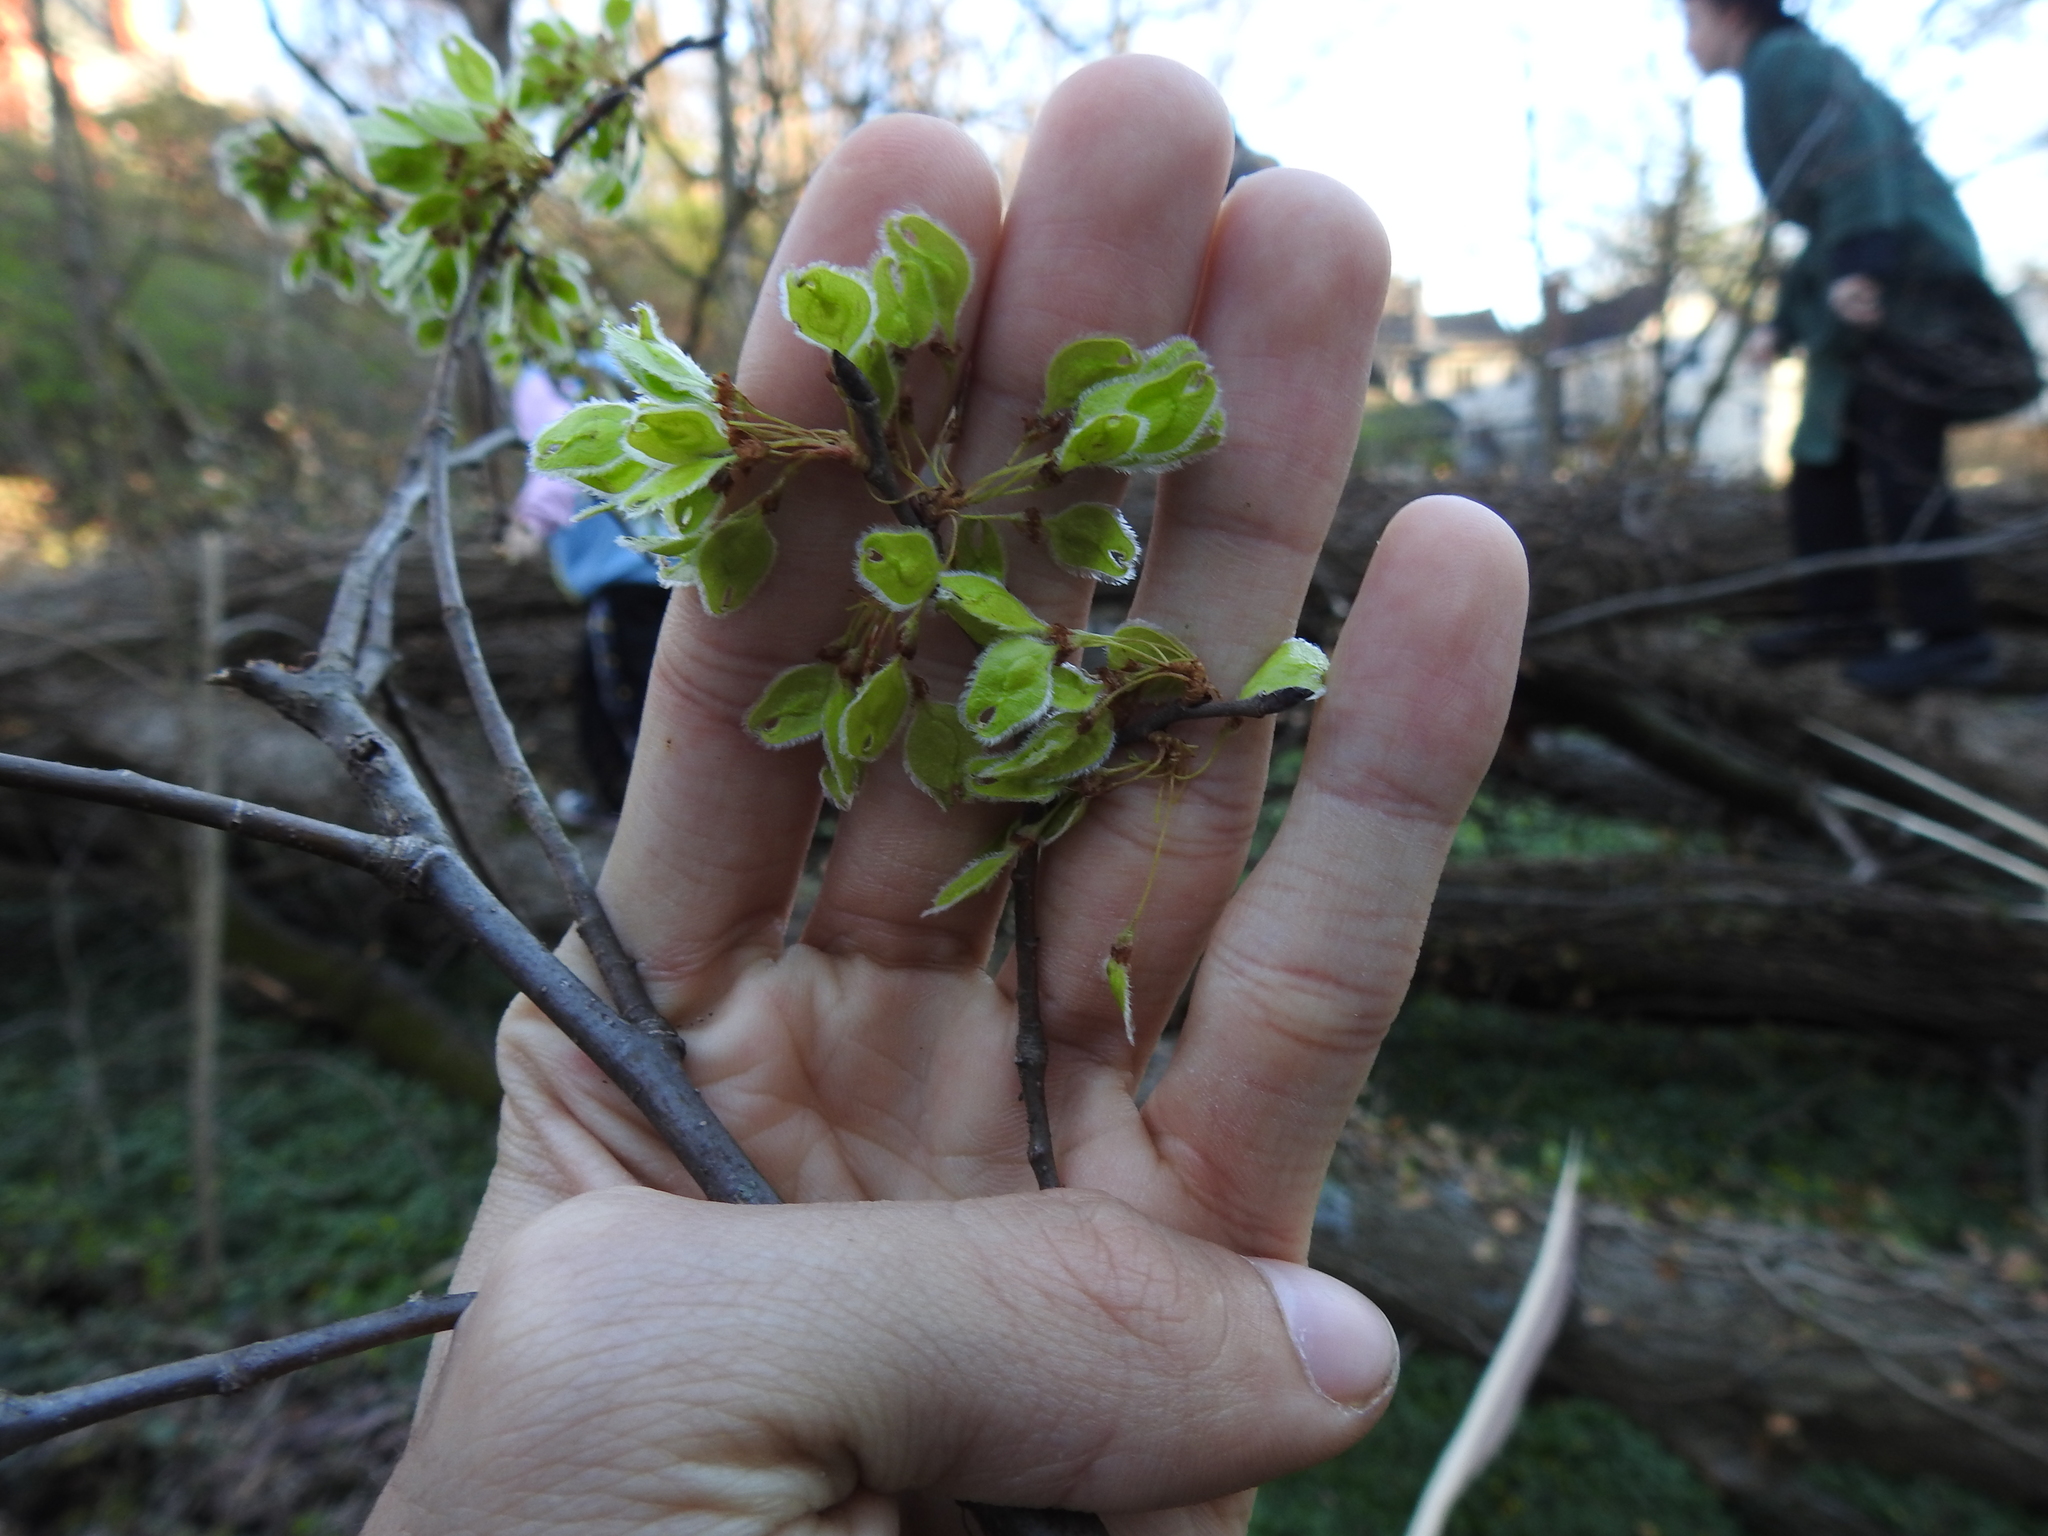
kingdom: Plantae
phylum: Tracheophyta
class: Magnoliopsida
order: Rosales
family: Ulmaceae
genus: Ulmus
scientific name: Ulmus americana
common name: American elm
